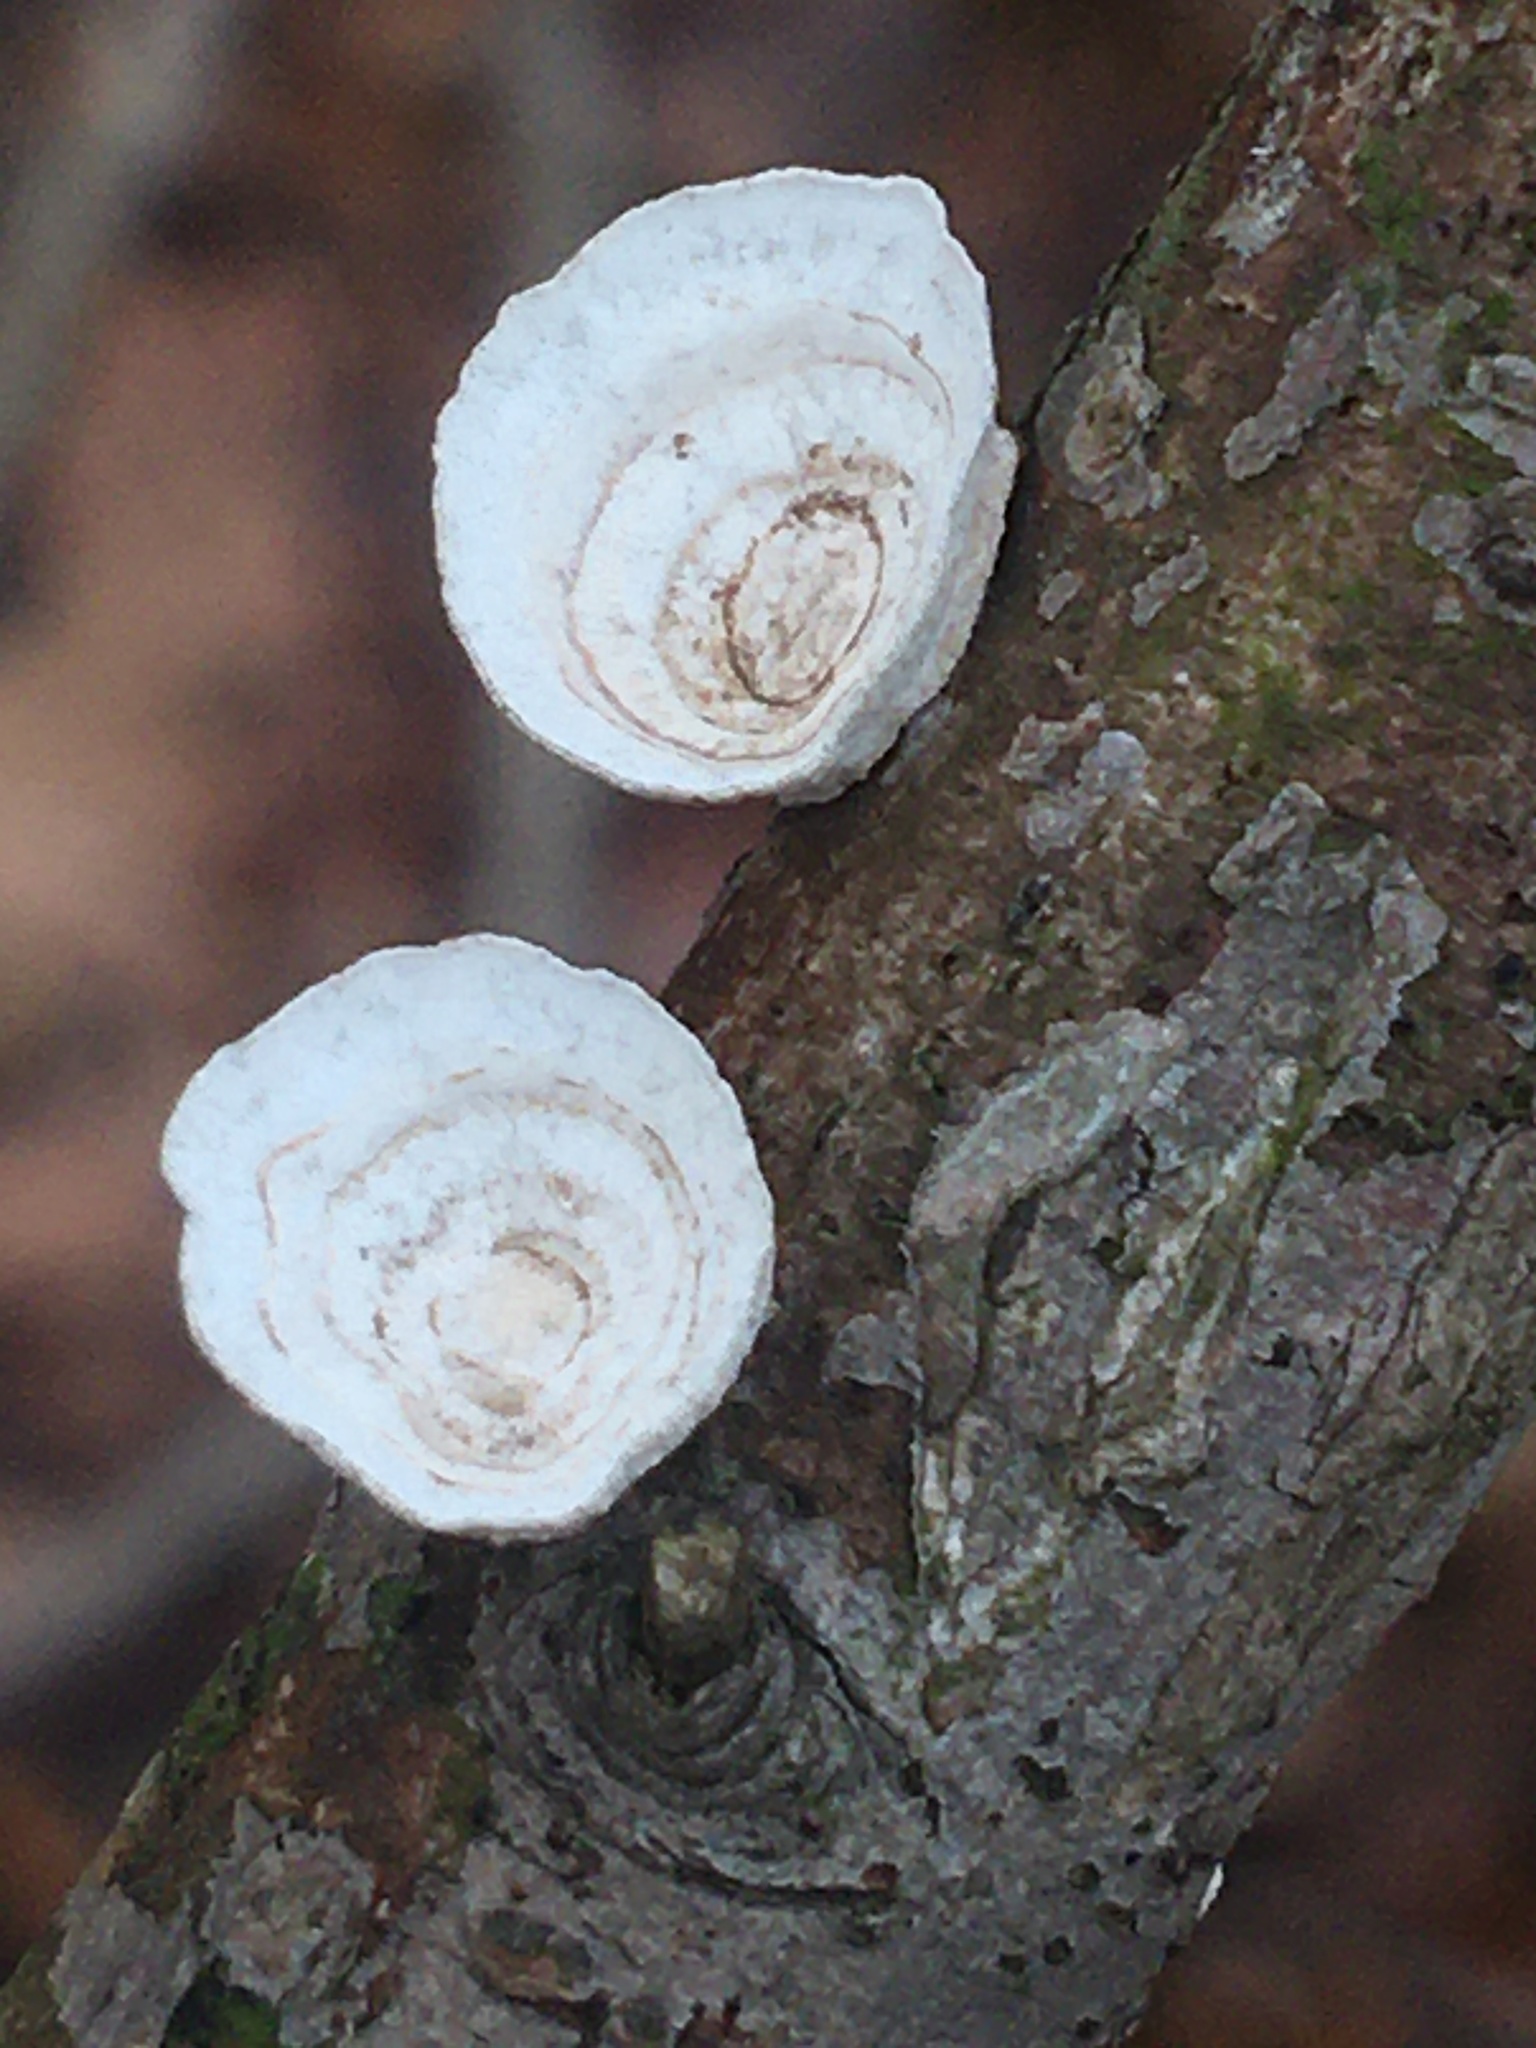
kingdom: Fungi
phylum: Basidiomycota
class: Agaricomycetes
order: Polyporales
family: Polyporaceae
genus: Poronidulus
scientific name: Poronidulus conchifer
